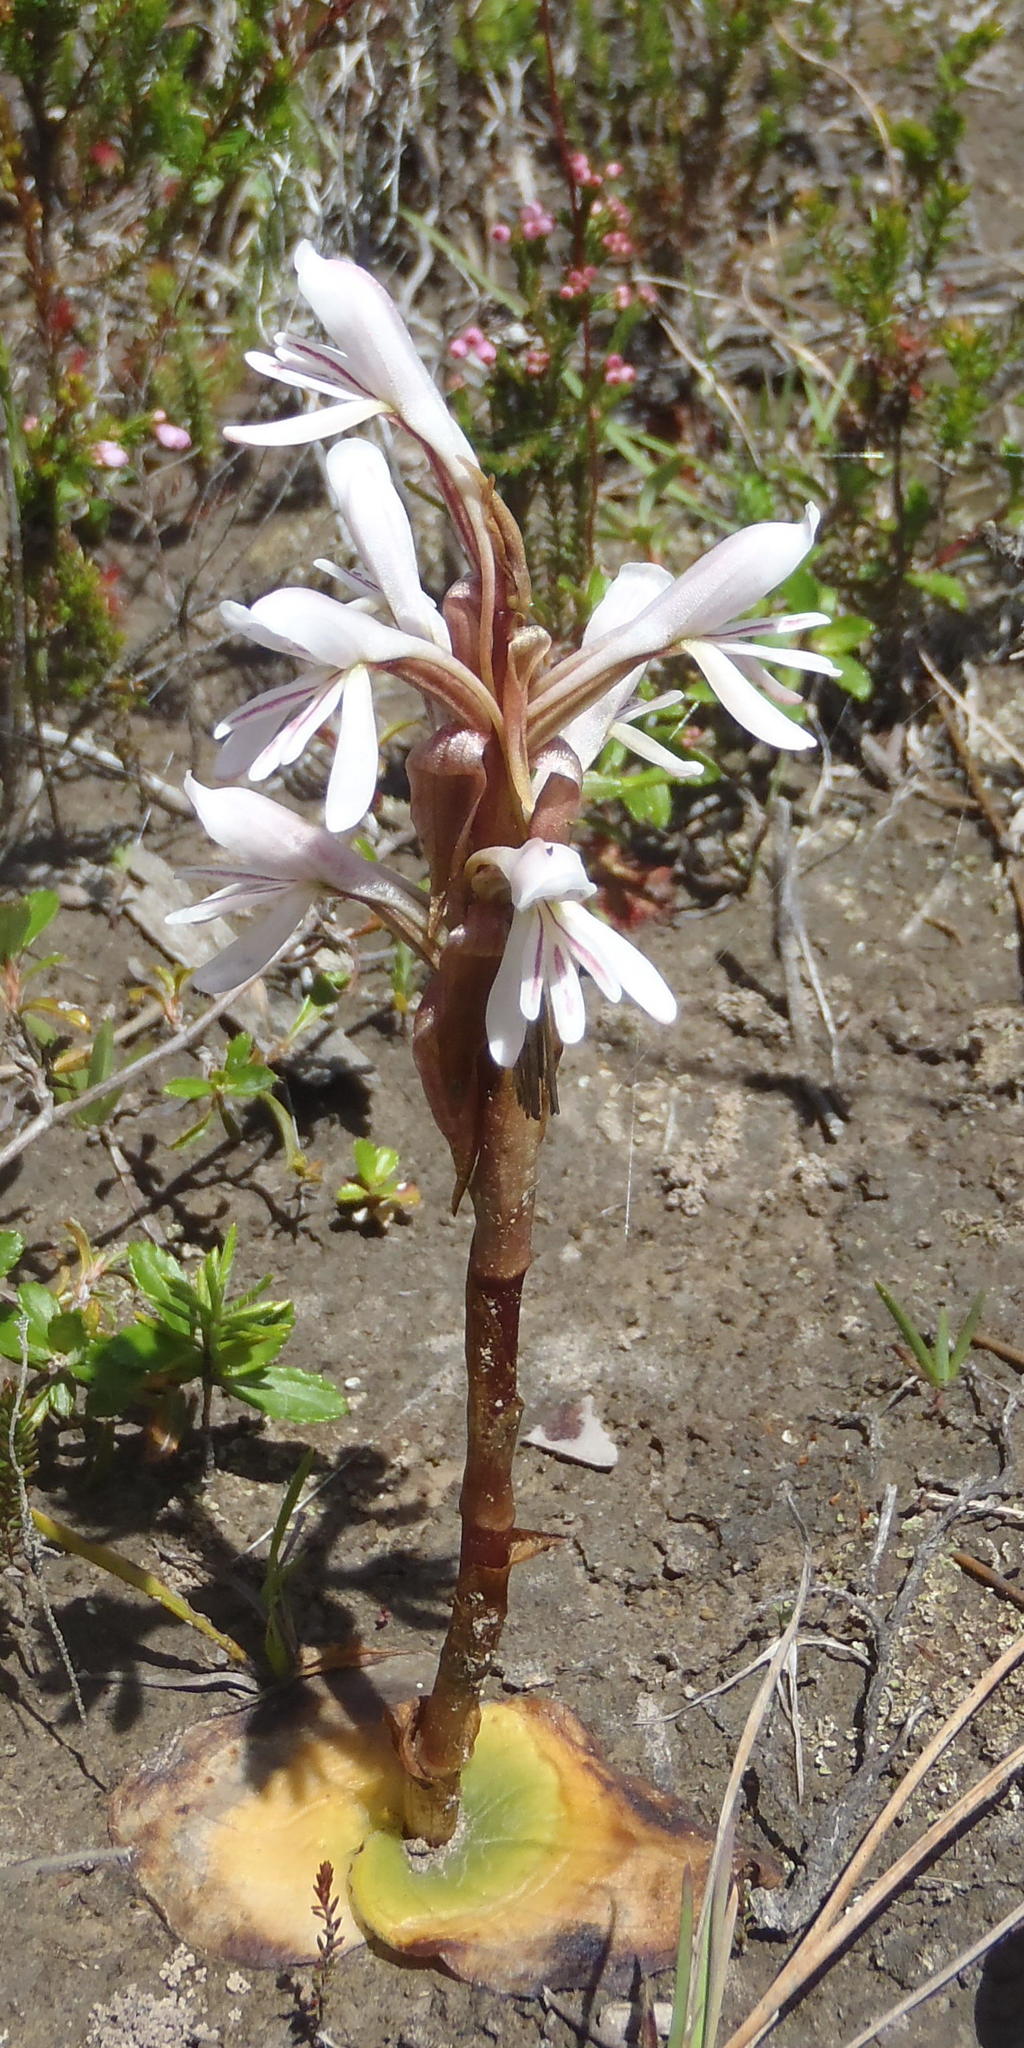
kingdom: Plantae
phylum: Tracheophyta
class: Liliopsida
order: Asparagales
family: Orchidaceae
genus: Satyrium
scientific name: Satyrium longicolle
